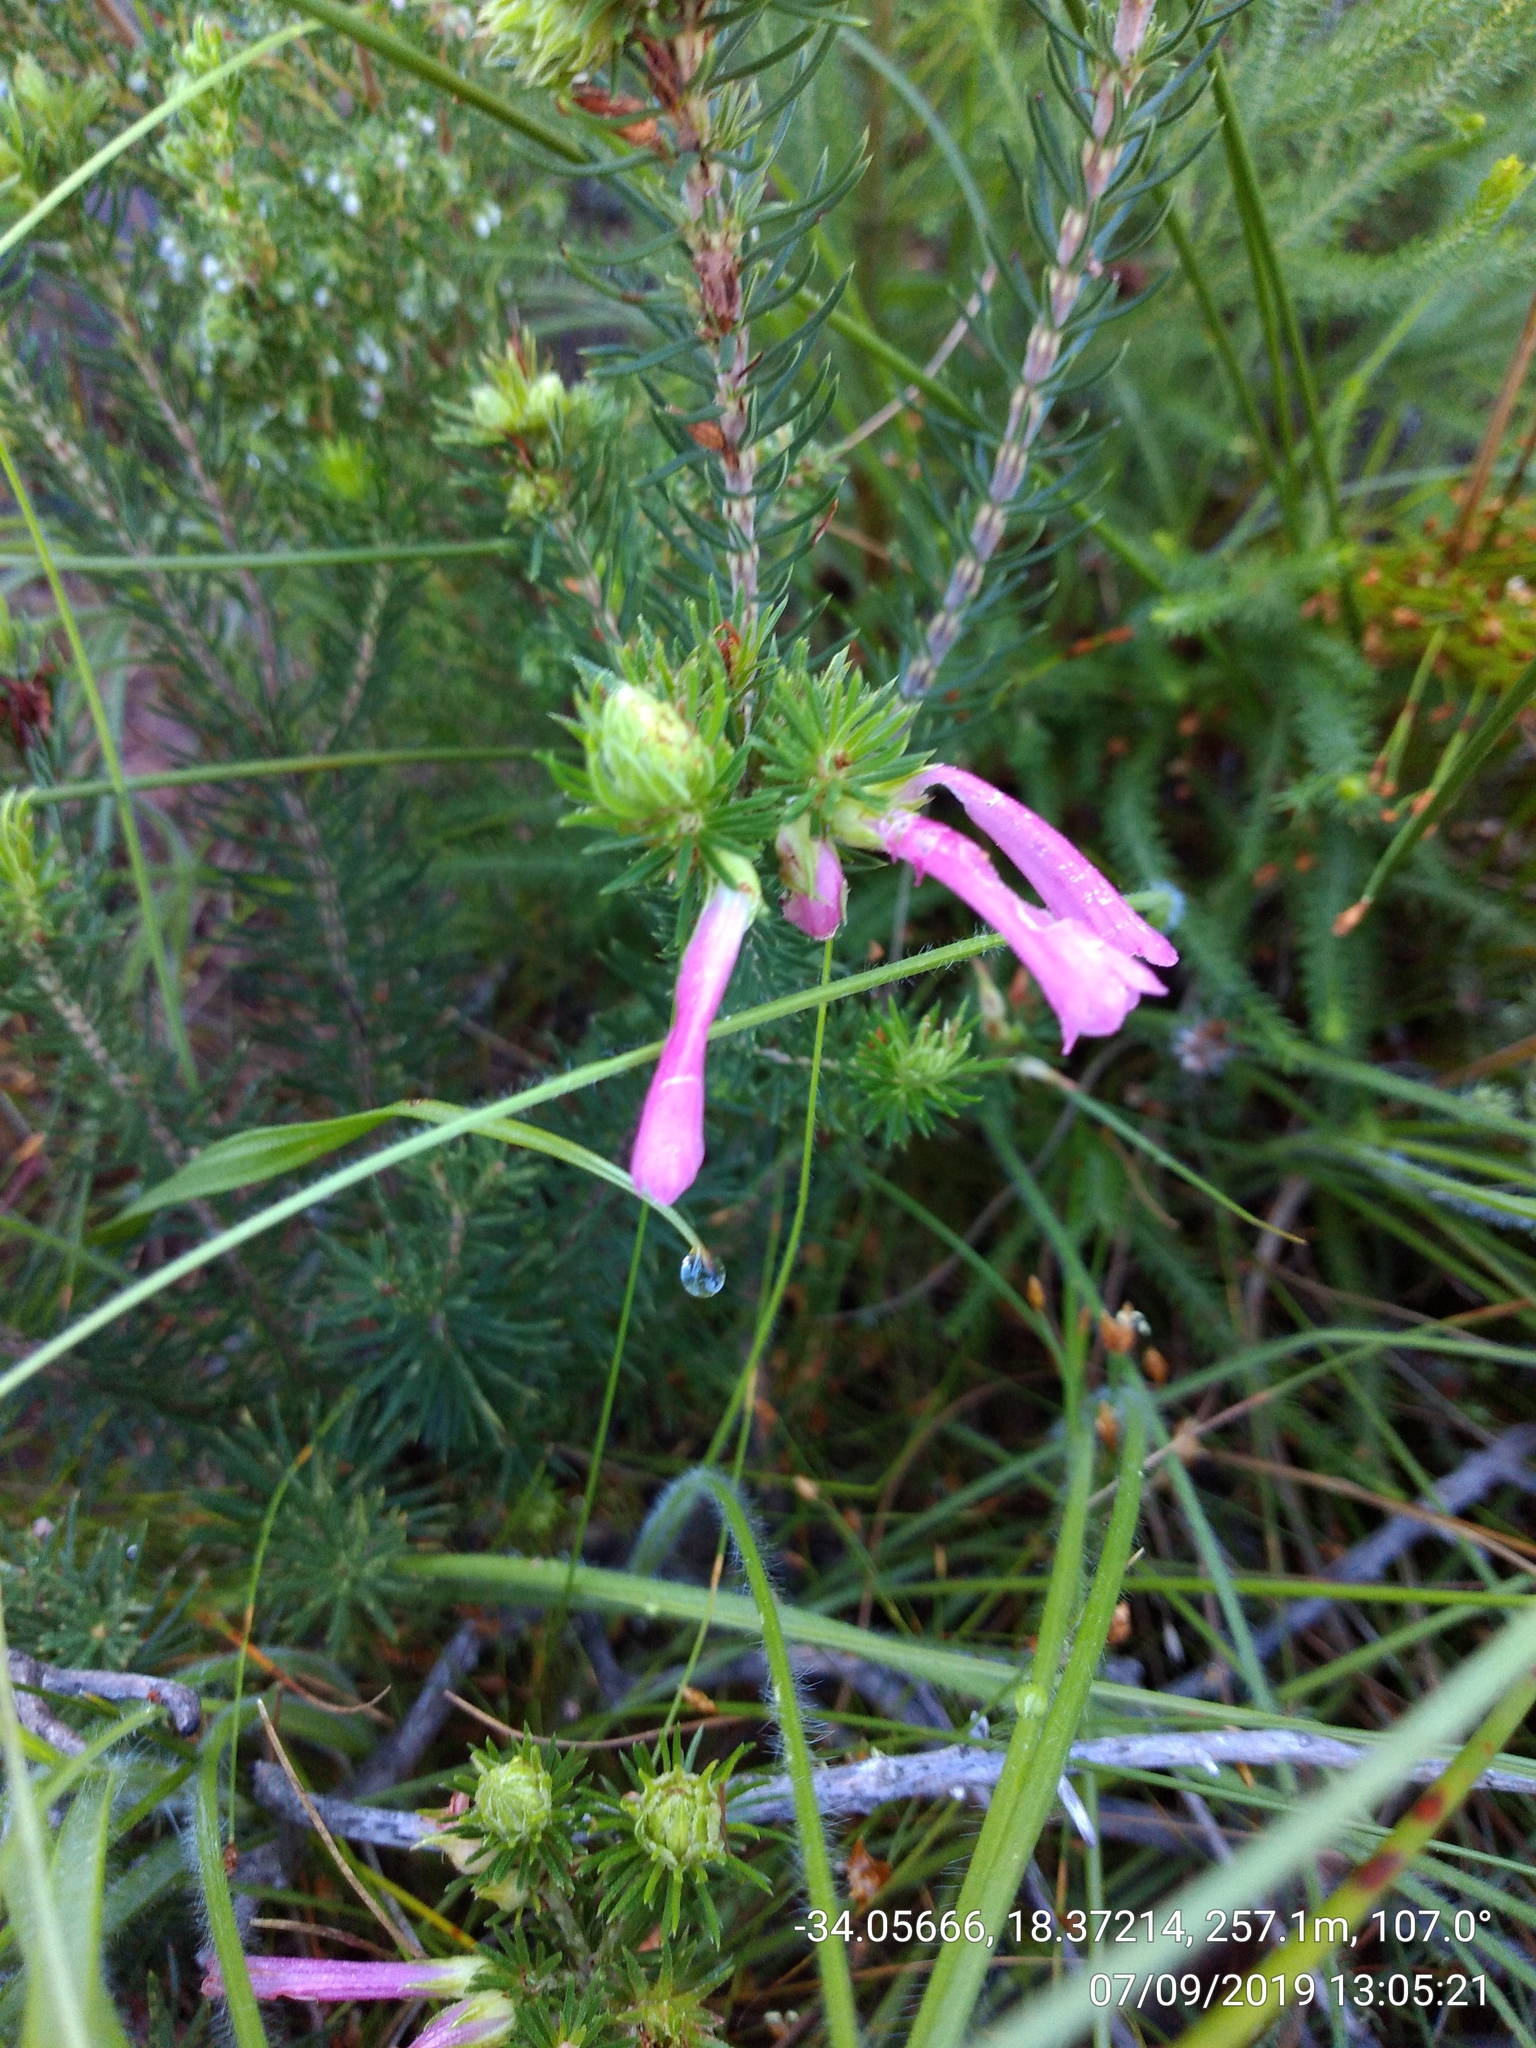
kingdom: Plantae
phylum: Tracheophyta
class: Magnoliopsida
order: Ericales
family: Ericaceae
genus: Erica
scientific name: Erica abietina
